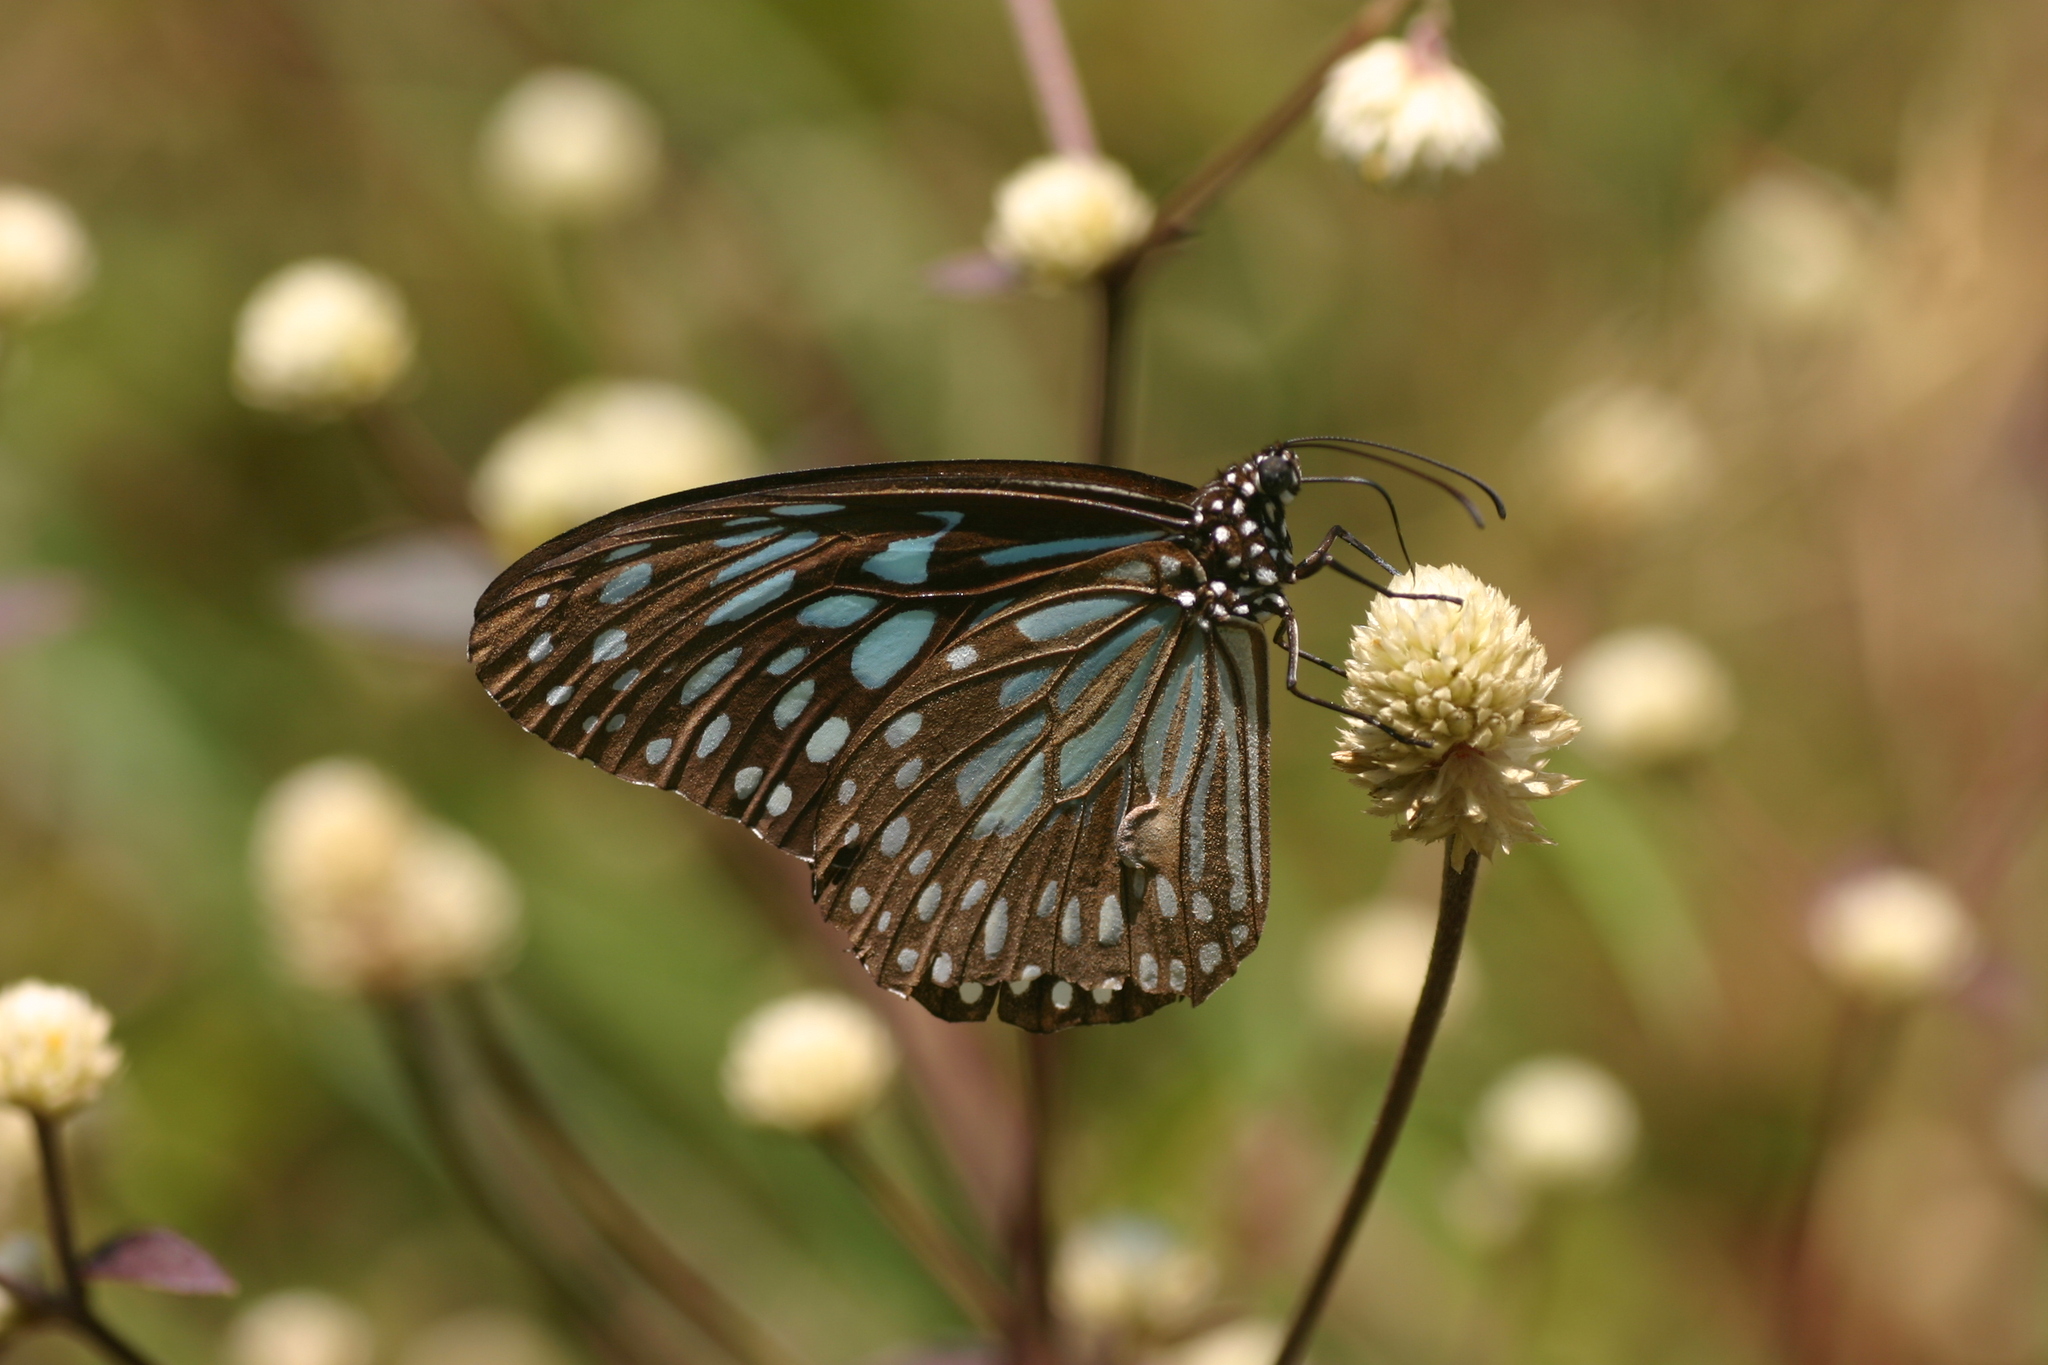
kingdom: Animalia
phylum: Arthropoda
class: Insecta
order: Lepidoptera
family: Nymphalidae
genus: Tirumala
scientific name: Tirumala septentrionis
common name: Dark blue tiger butterfly
